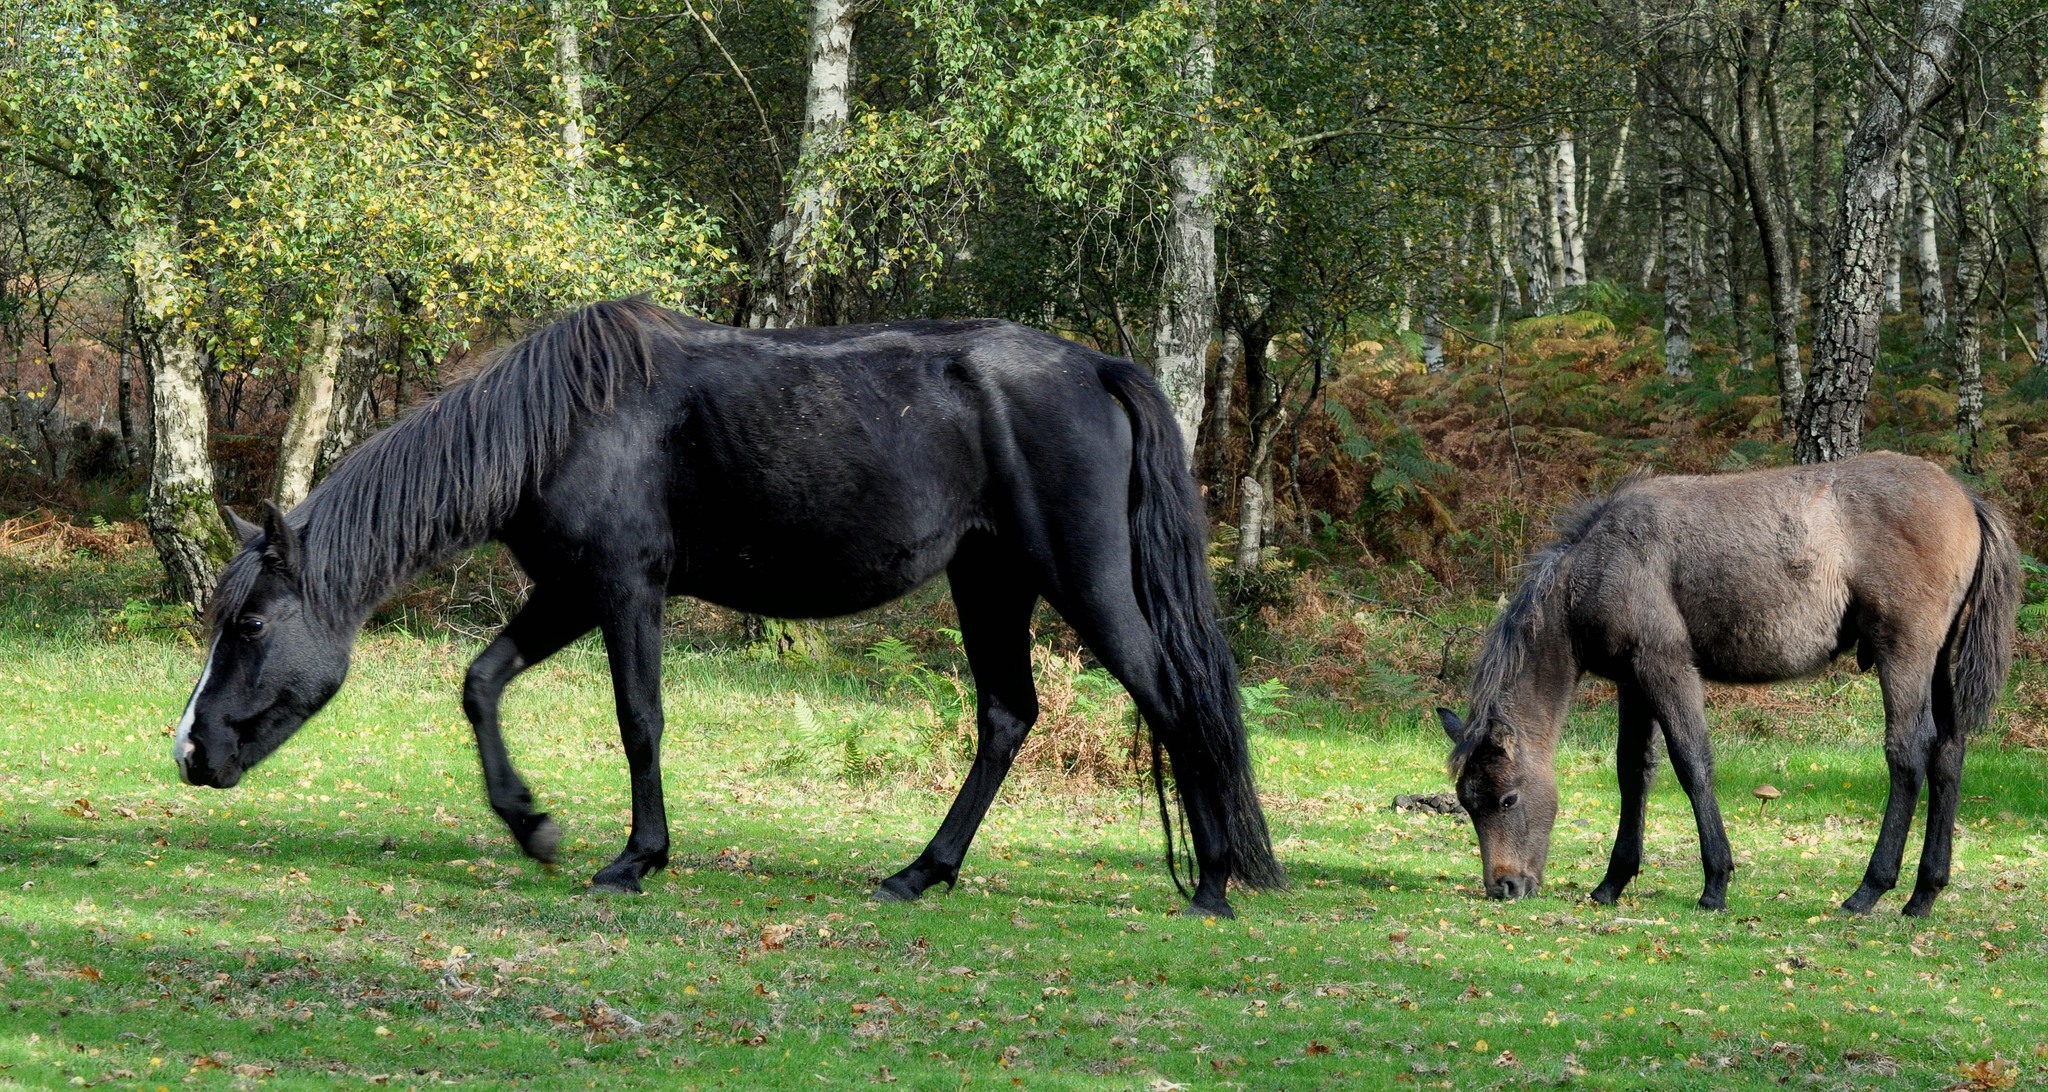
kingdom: Animalia
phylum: Chordata
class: Mammalia
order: Perissodactyla
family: Equidae
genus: Equus
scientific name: Equus caballus
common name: Horse
